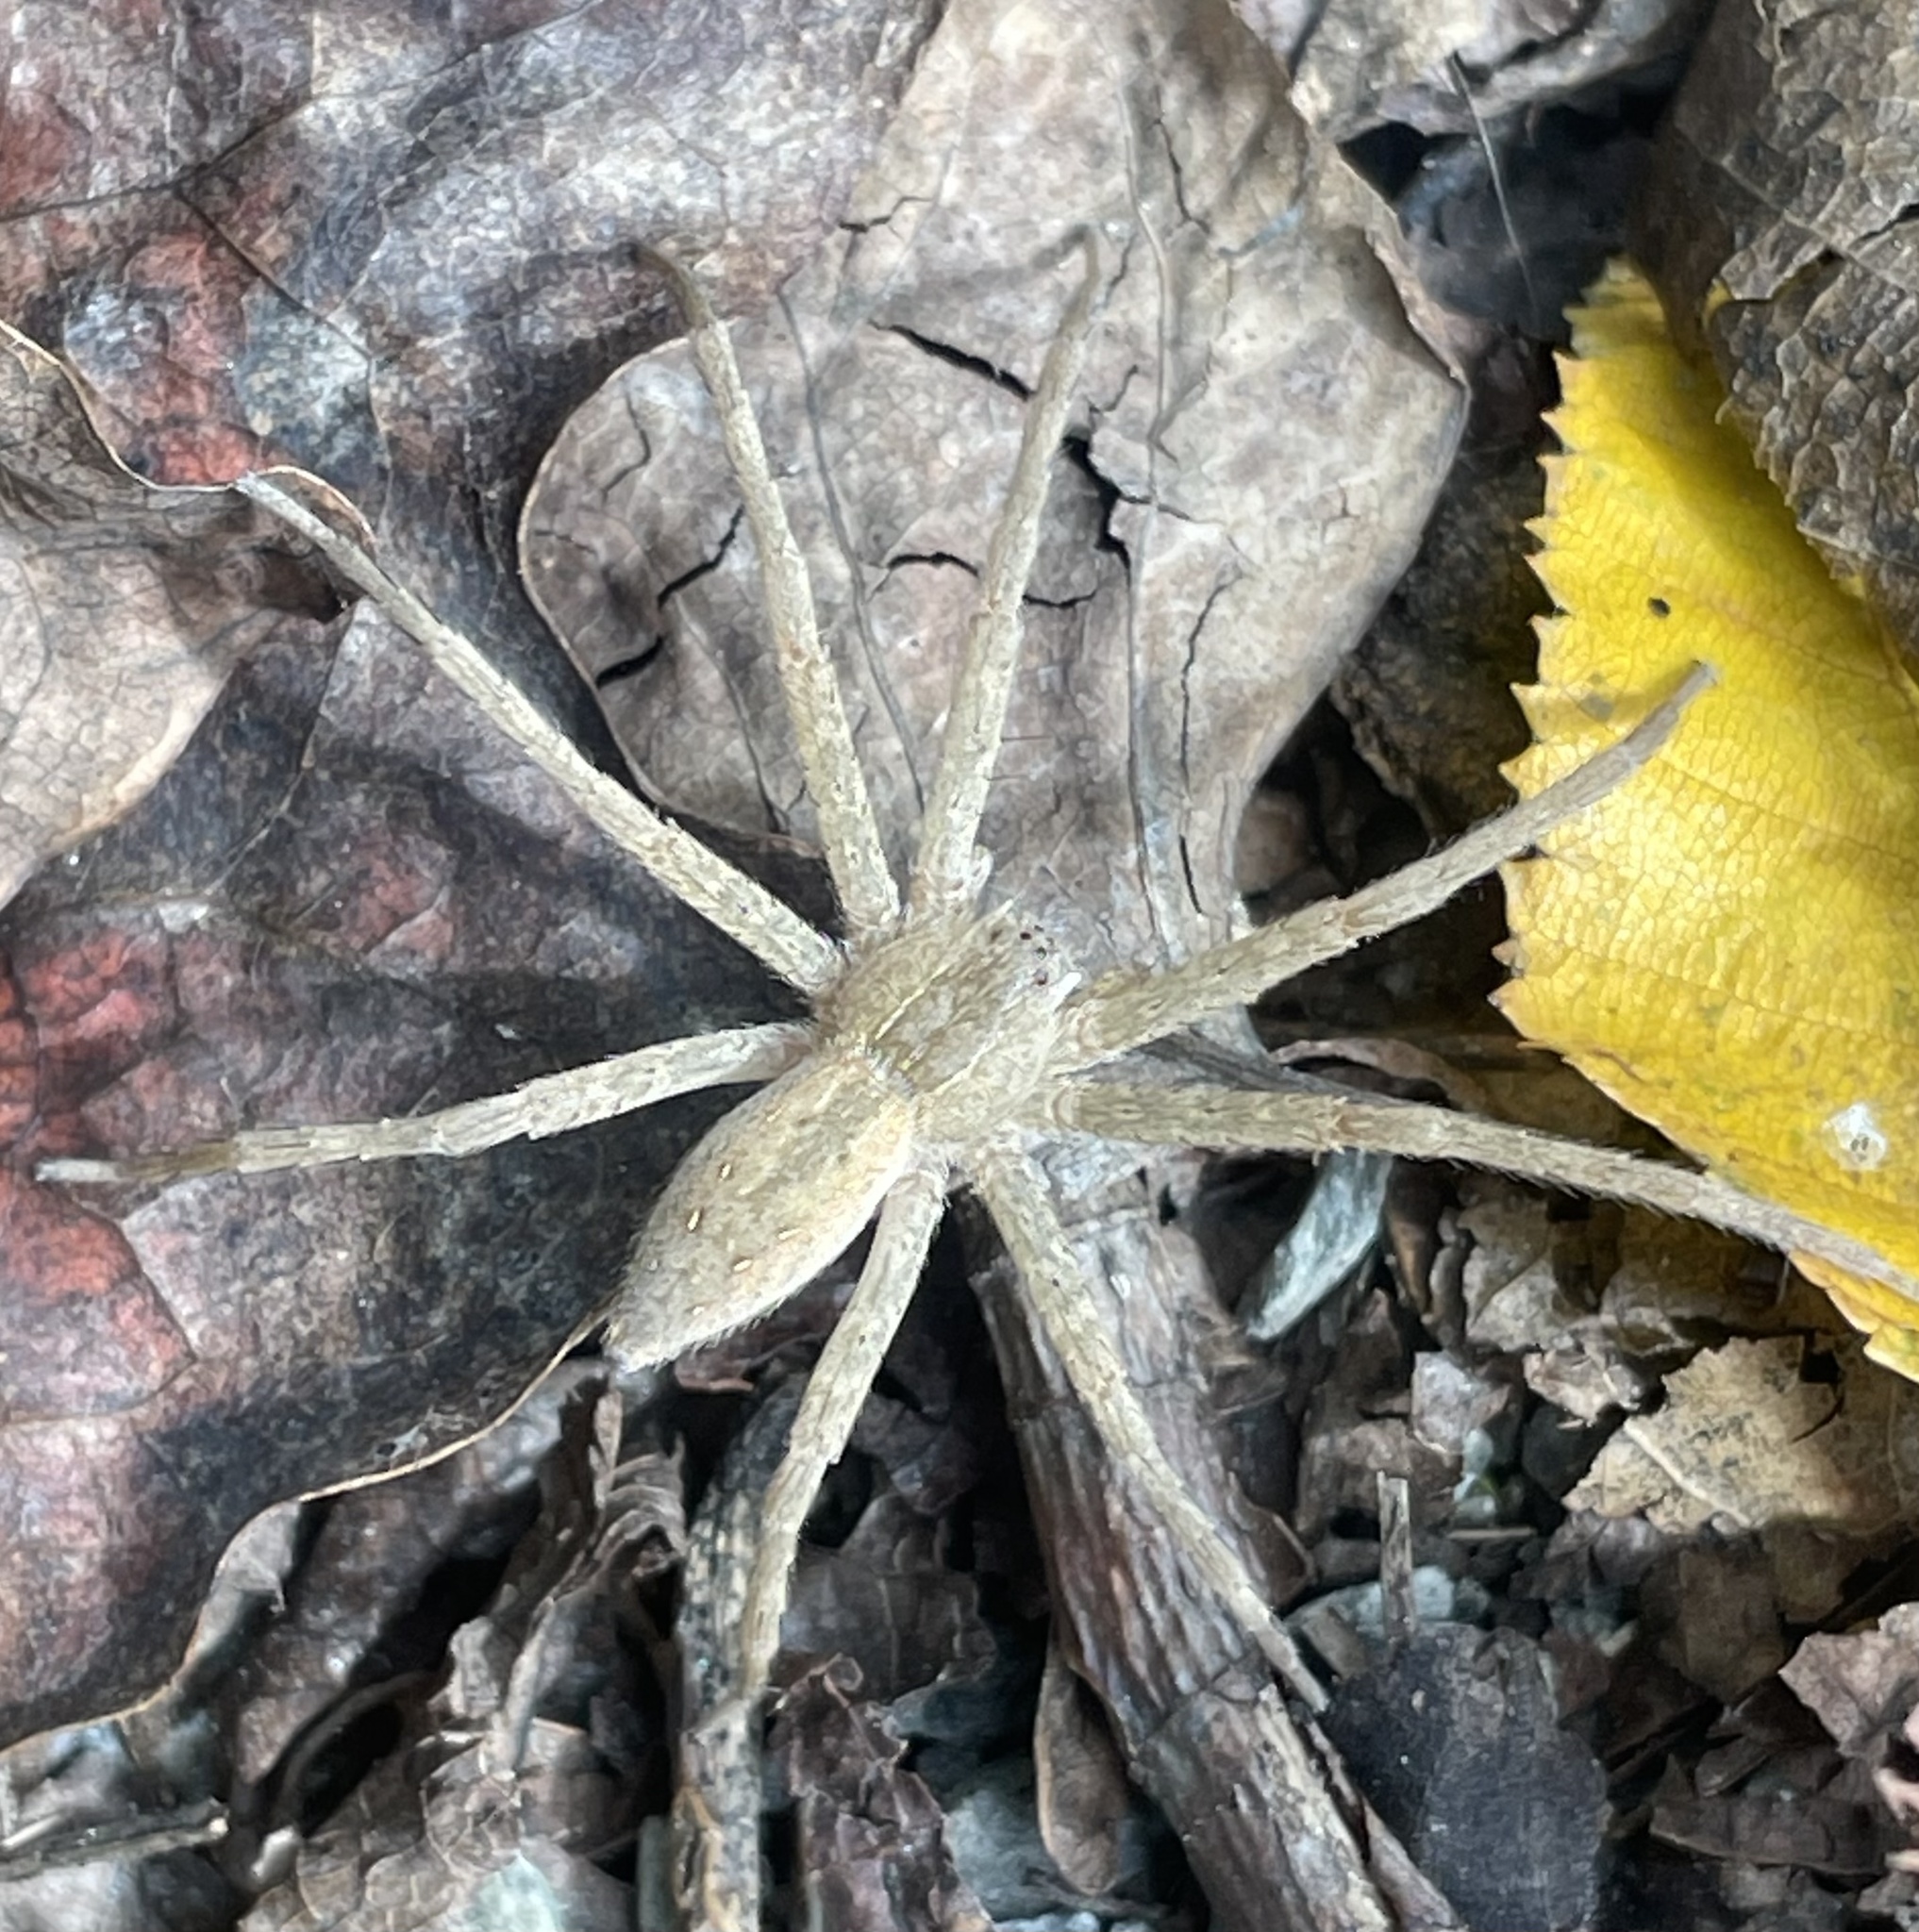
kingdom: Animalia
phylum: Arthropoda
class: Arachnida
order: Araneae
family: Pisauridae
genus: Pisaurina
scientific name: Pisaurina mira
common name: American nursery web spider
